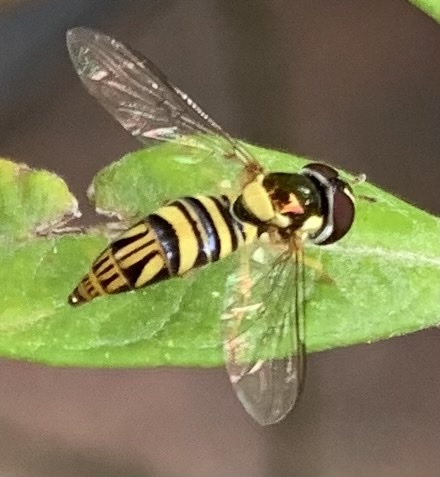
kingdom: Animalia
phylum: Arthropoda
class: Insecta
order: Diptera
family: Syrphidae
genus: Allograpta
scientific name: Allograpta obliqua
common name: Common oblique syrphid
